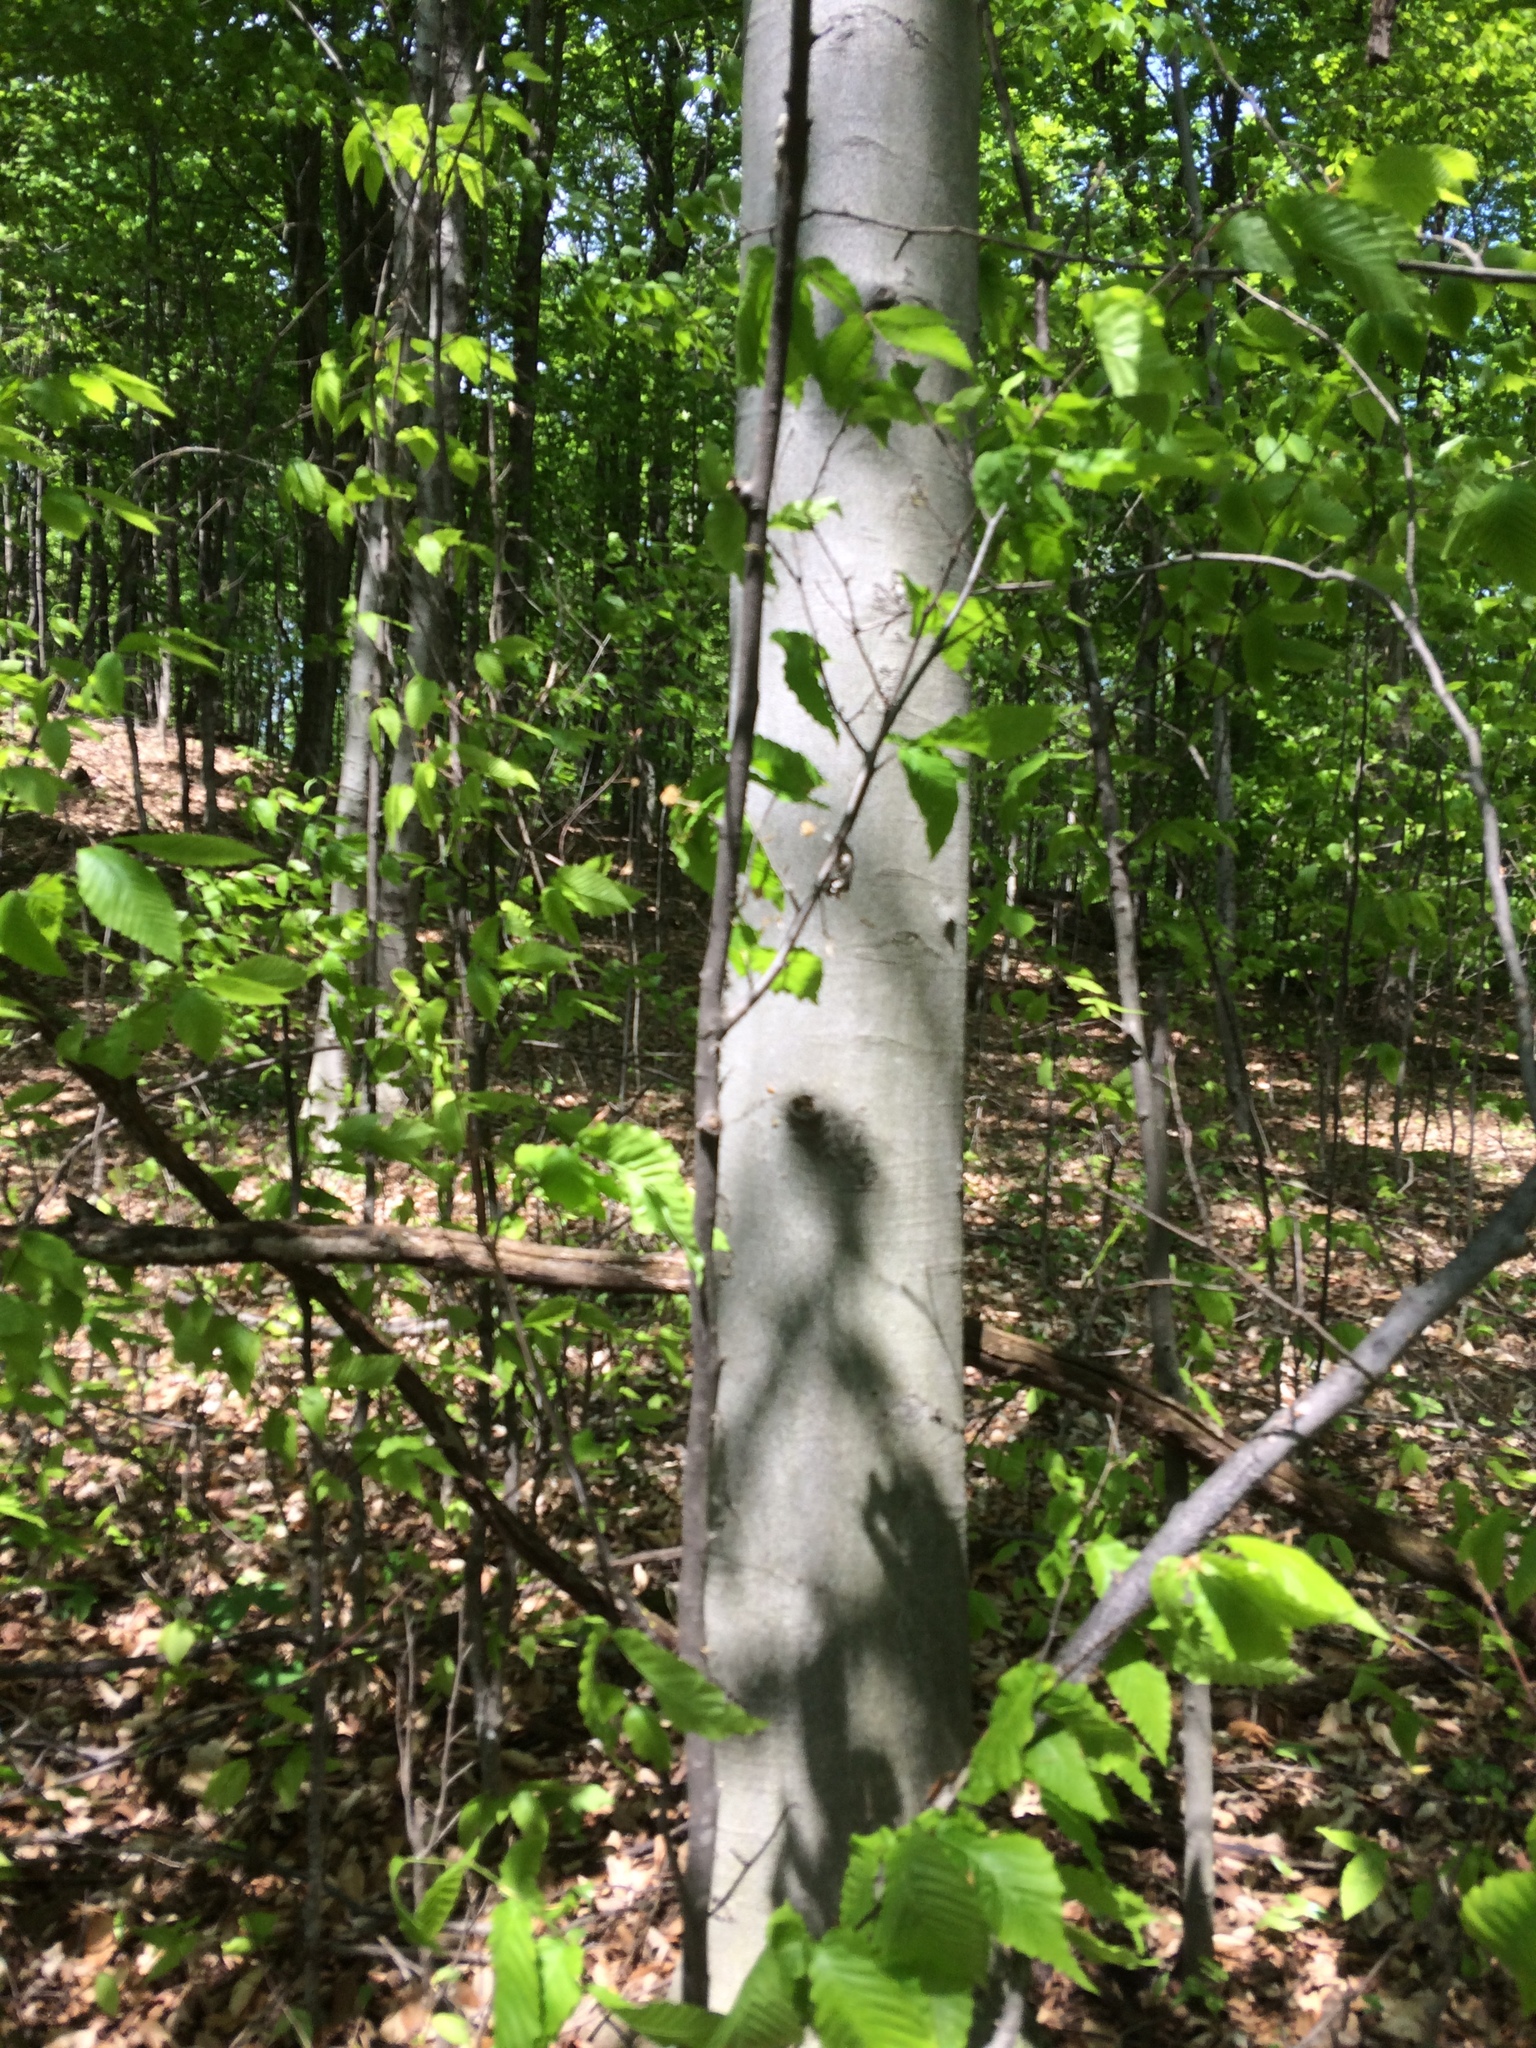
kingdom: Plantae
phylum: Tracheophyta
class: Magnoliopsida
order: Fagales
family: Fagaceae
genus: Fagus
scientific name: Fagus grandifolia
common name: American beech
